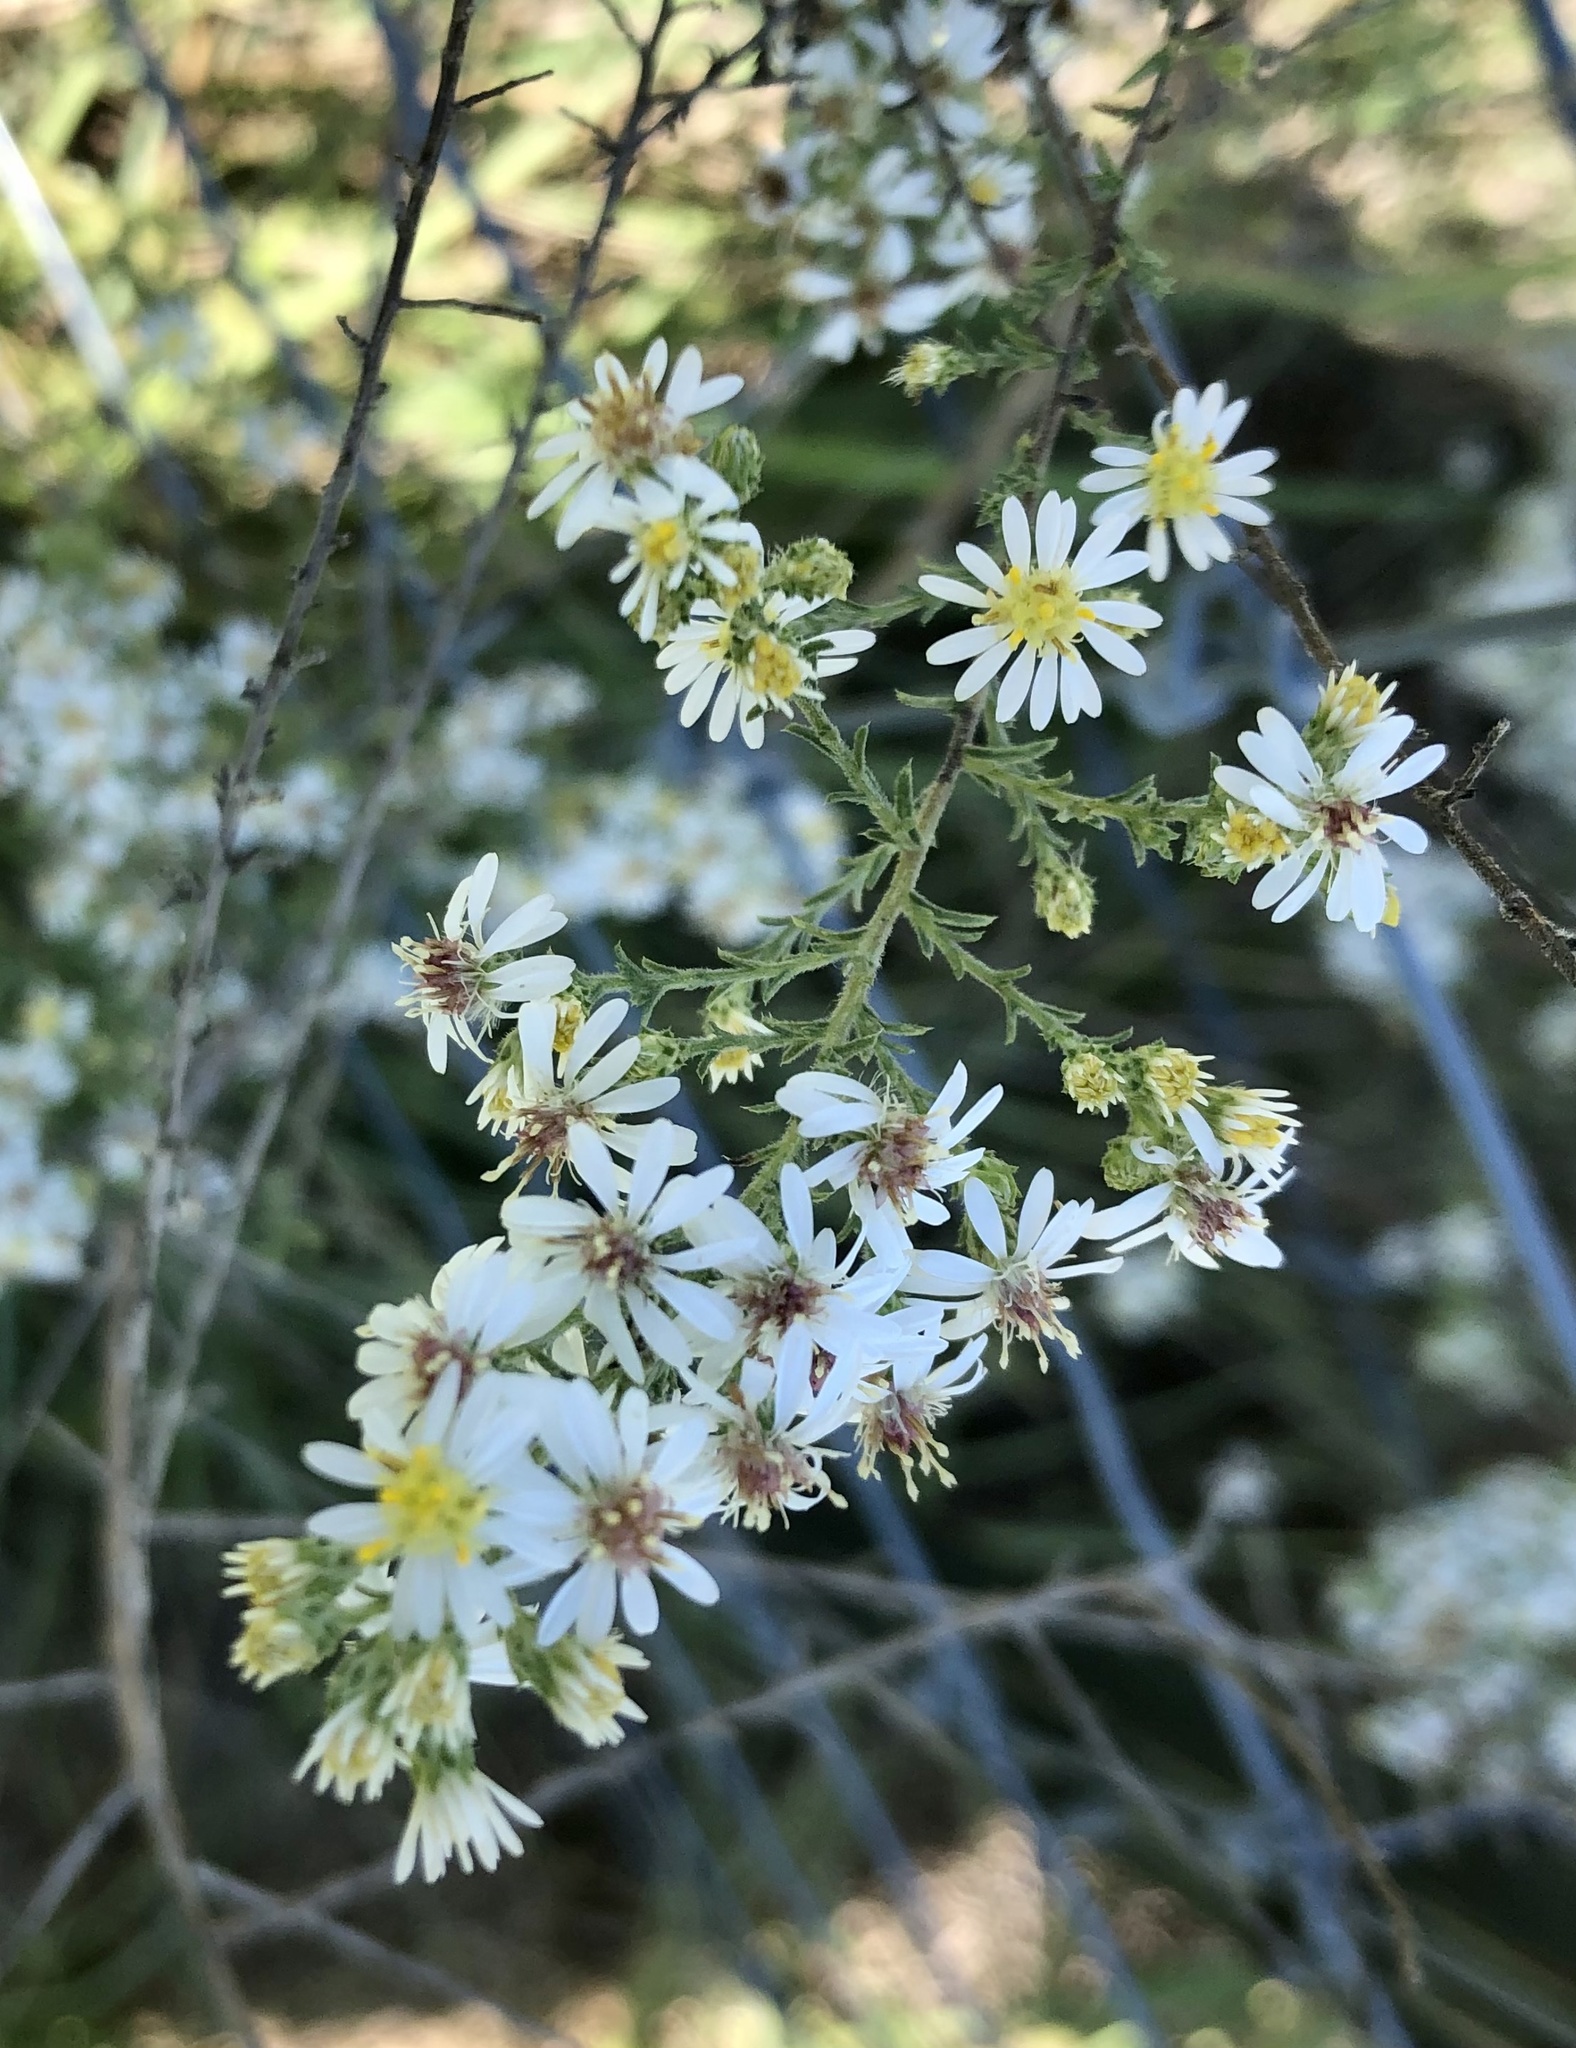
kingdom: Plantae
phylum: Tracheophyta
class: Magnoliopsida
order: Asterales
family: Asteraceae
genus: Symphyotrichum
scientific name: Symphyotrichum ericoides
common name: Heath aster
